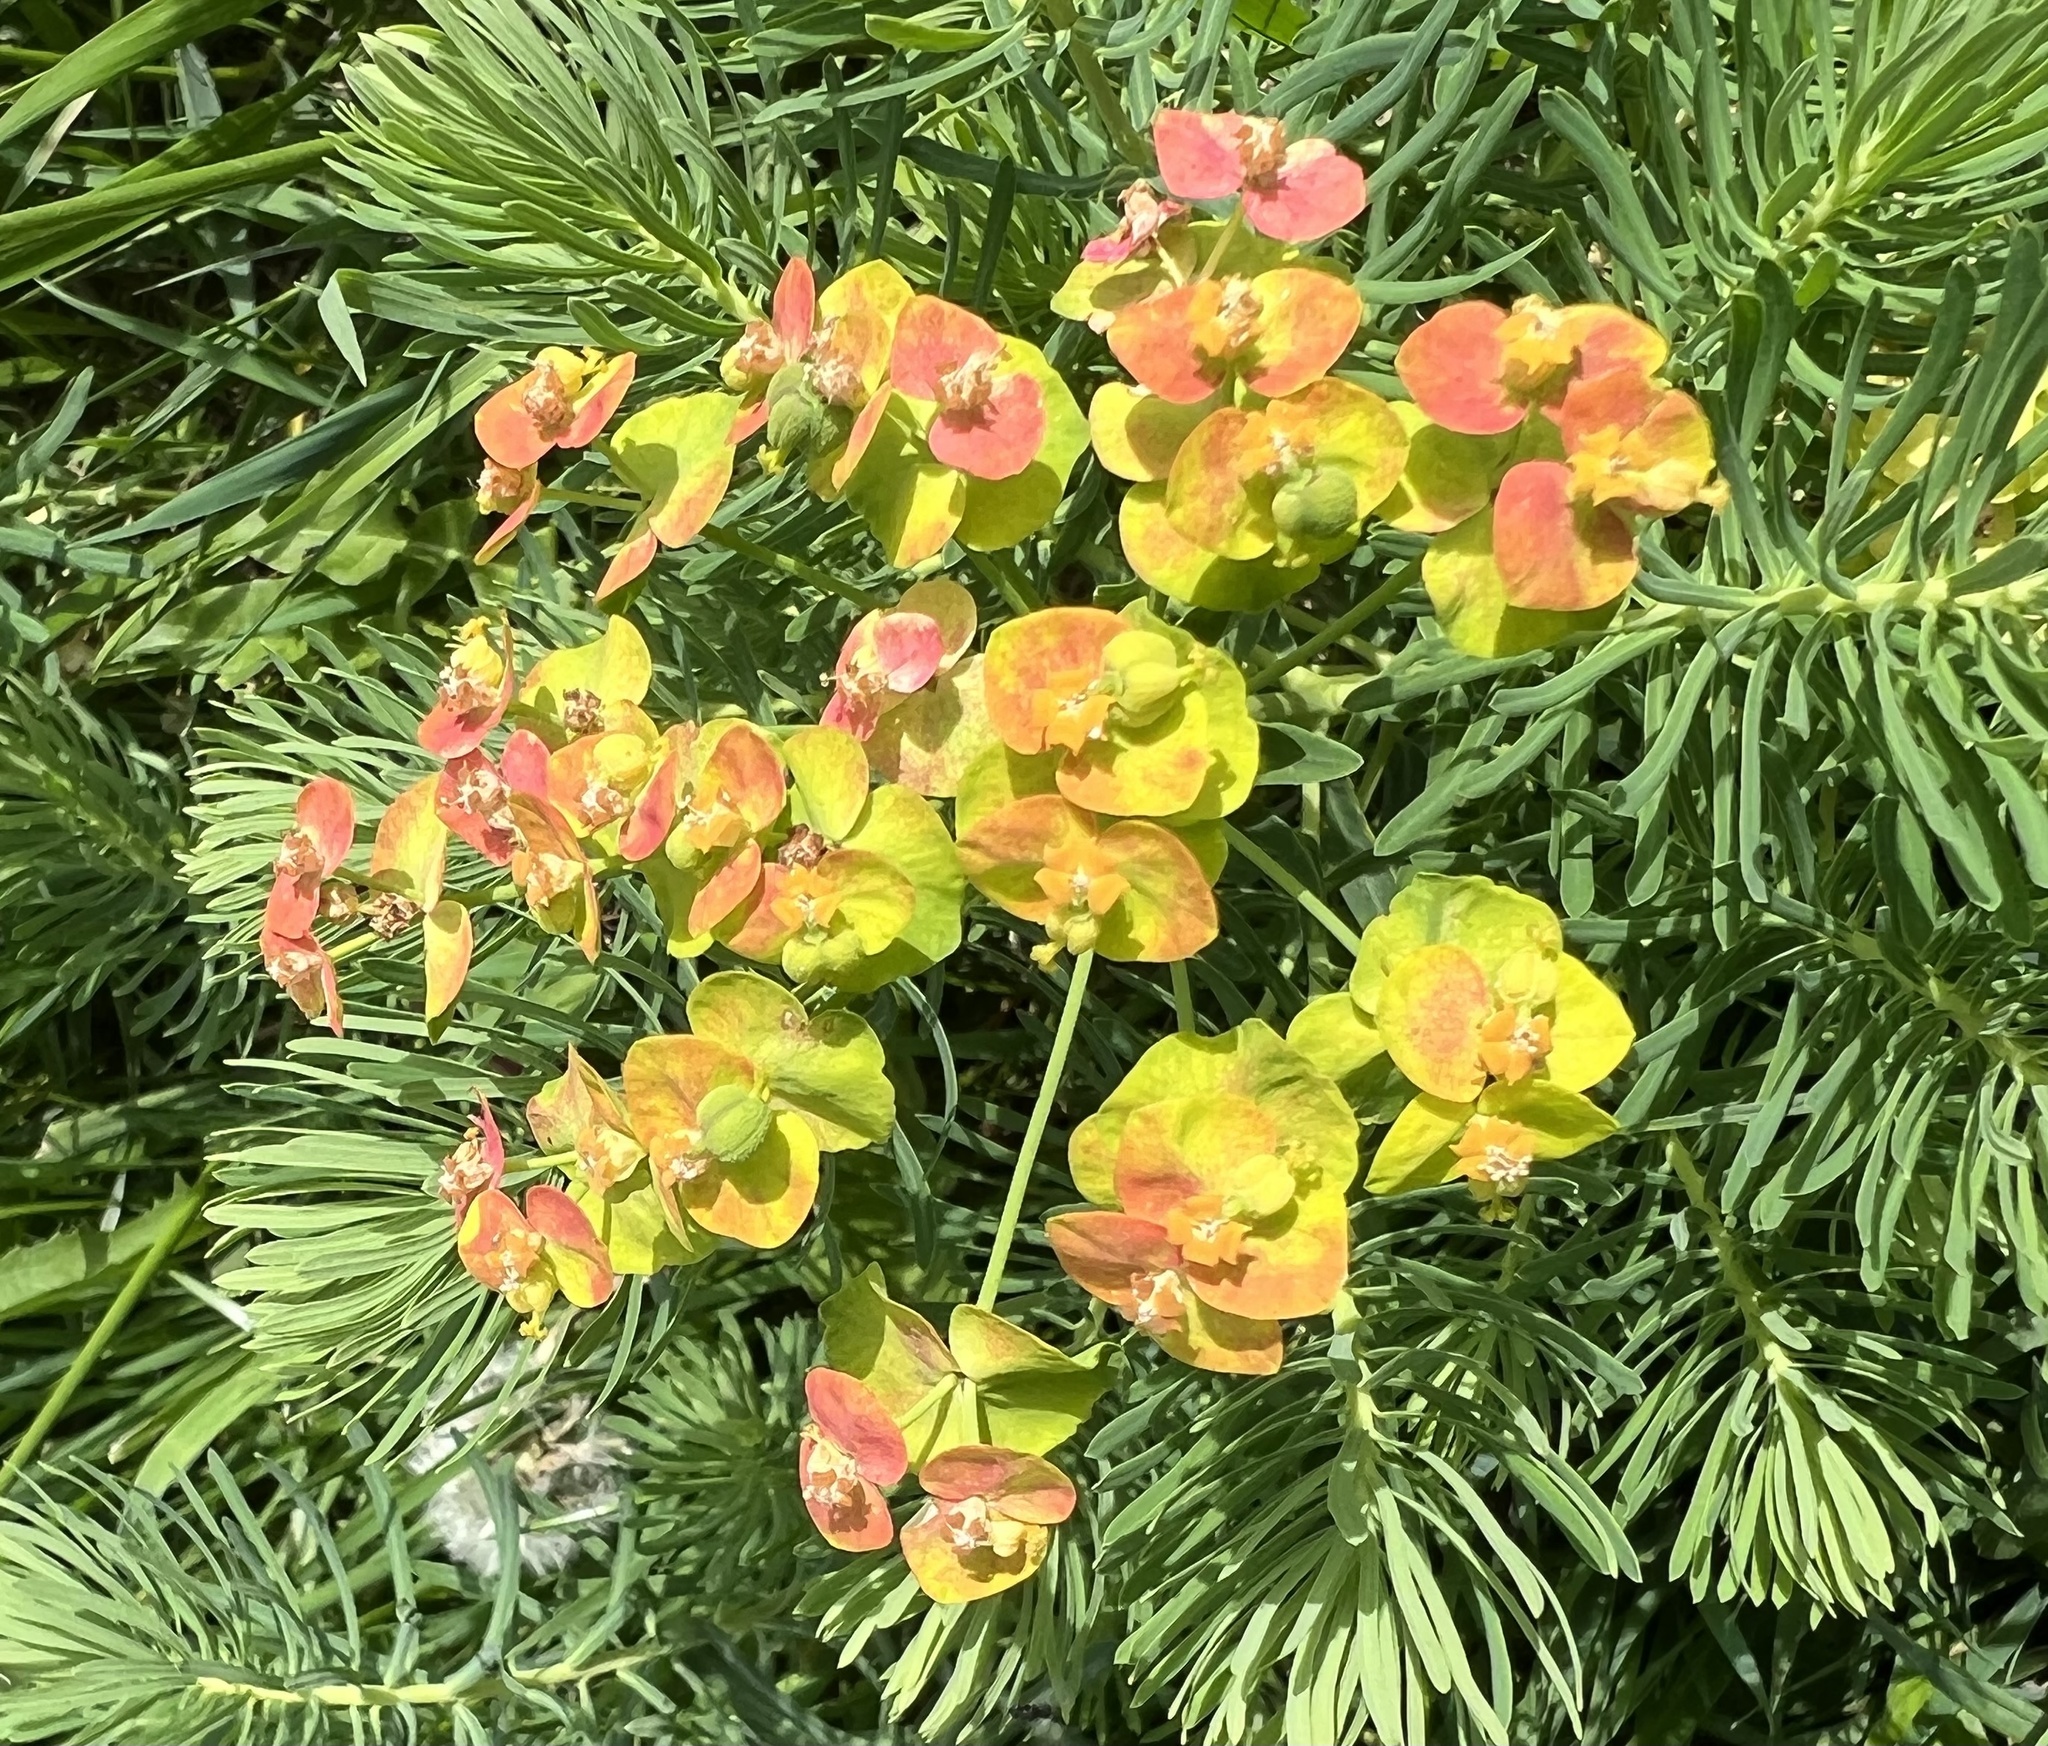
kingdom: Plantae
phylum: Tracheophyta
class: Magnoliopsida
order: Malpighiales
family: Euphorbiaceae
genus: Euphorbia
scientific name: Euphorbia cyparissias
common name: Cypress spurge
